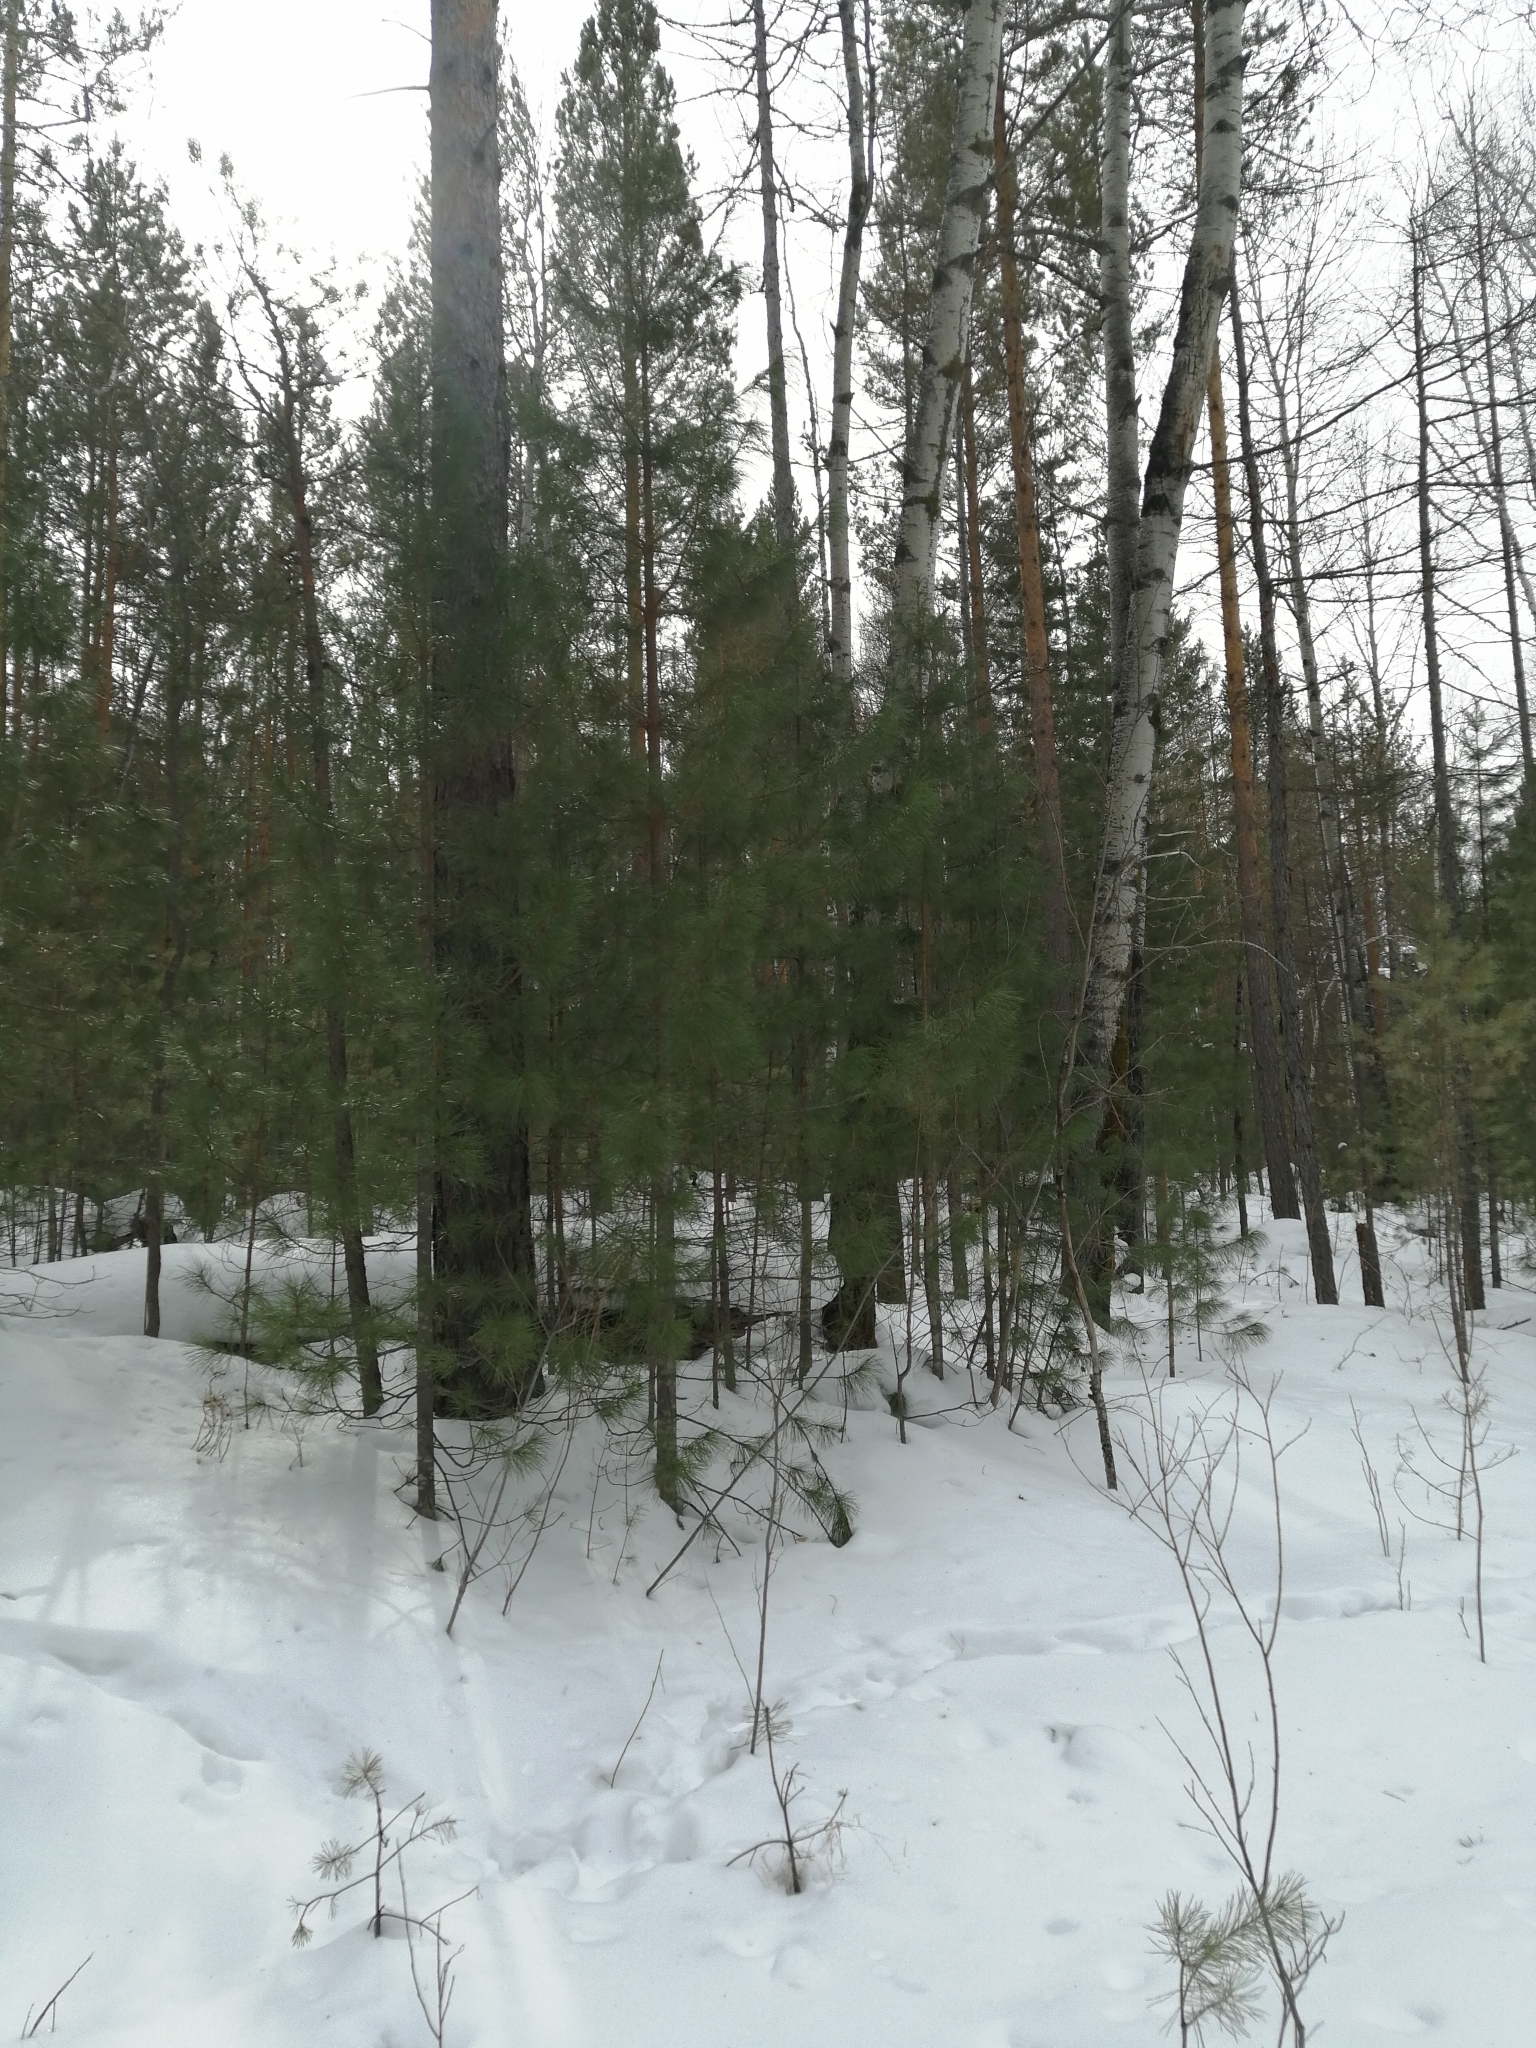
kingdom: Plantae
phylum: Tracheophyta
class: Pinopsida
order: Pinales
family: Pinaceae
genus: Pinus
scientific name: Pinus sibirica
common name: Siberian pine
